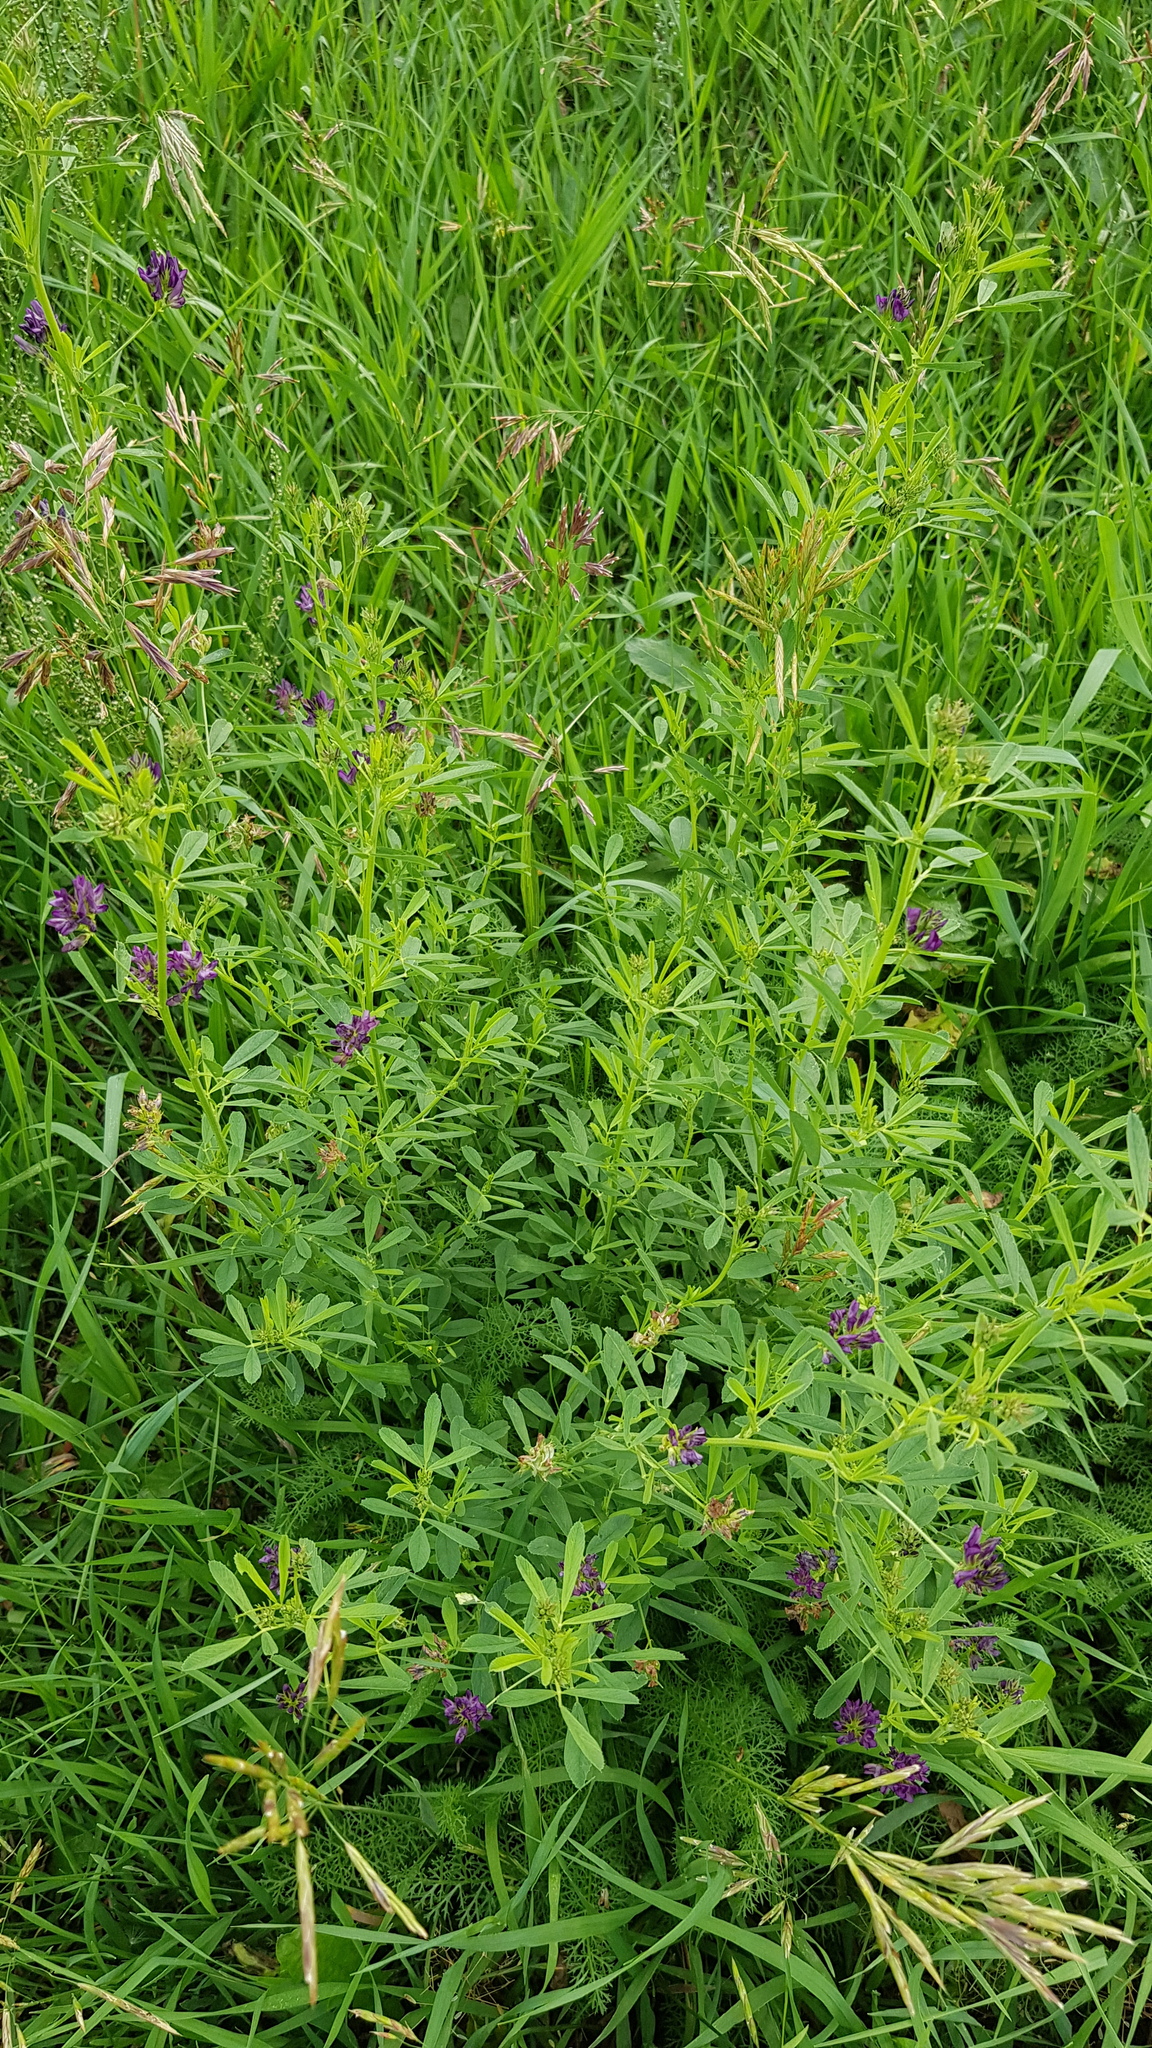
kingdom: Plantae
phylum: Tracheophyta
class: Magnoliopsida
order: Fabales
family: Fabaceae
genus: Medicago
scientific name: Medicago sativa
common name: Alfalfa
